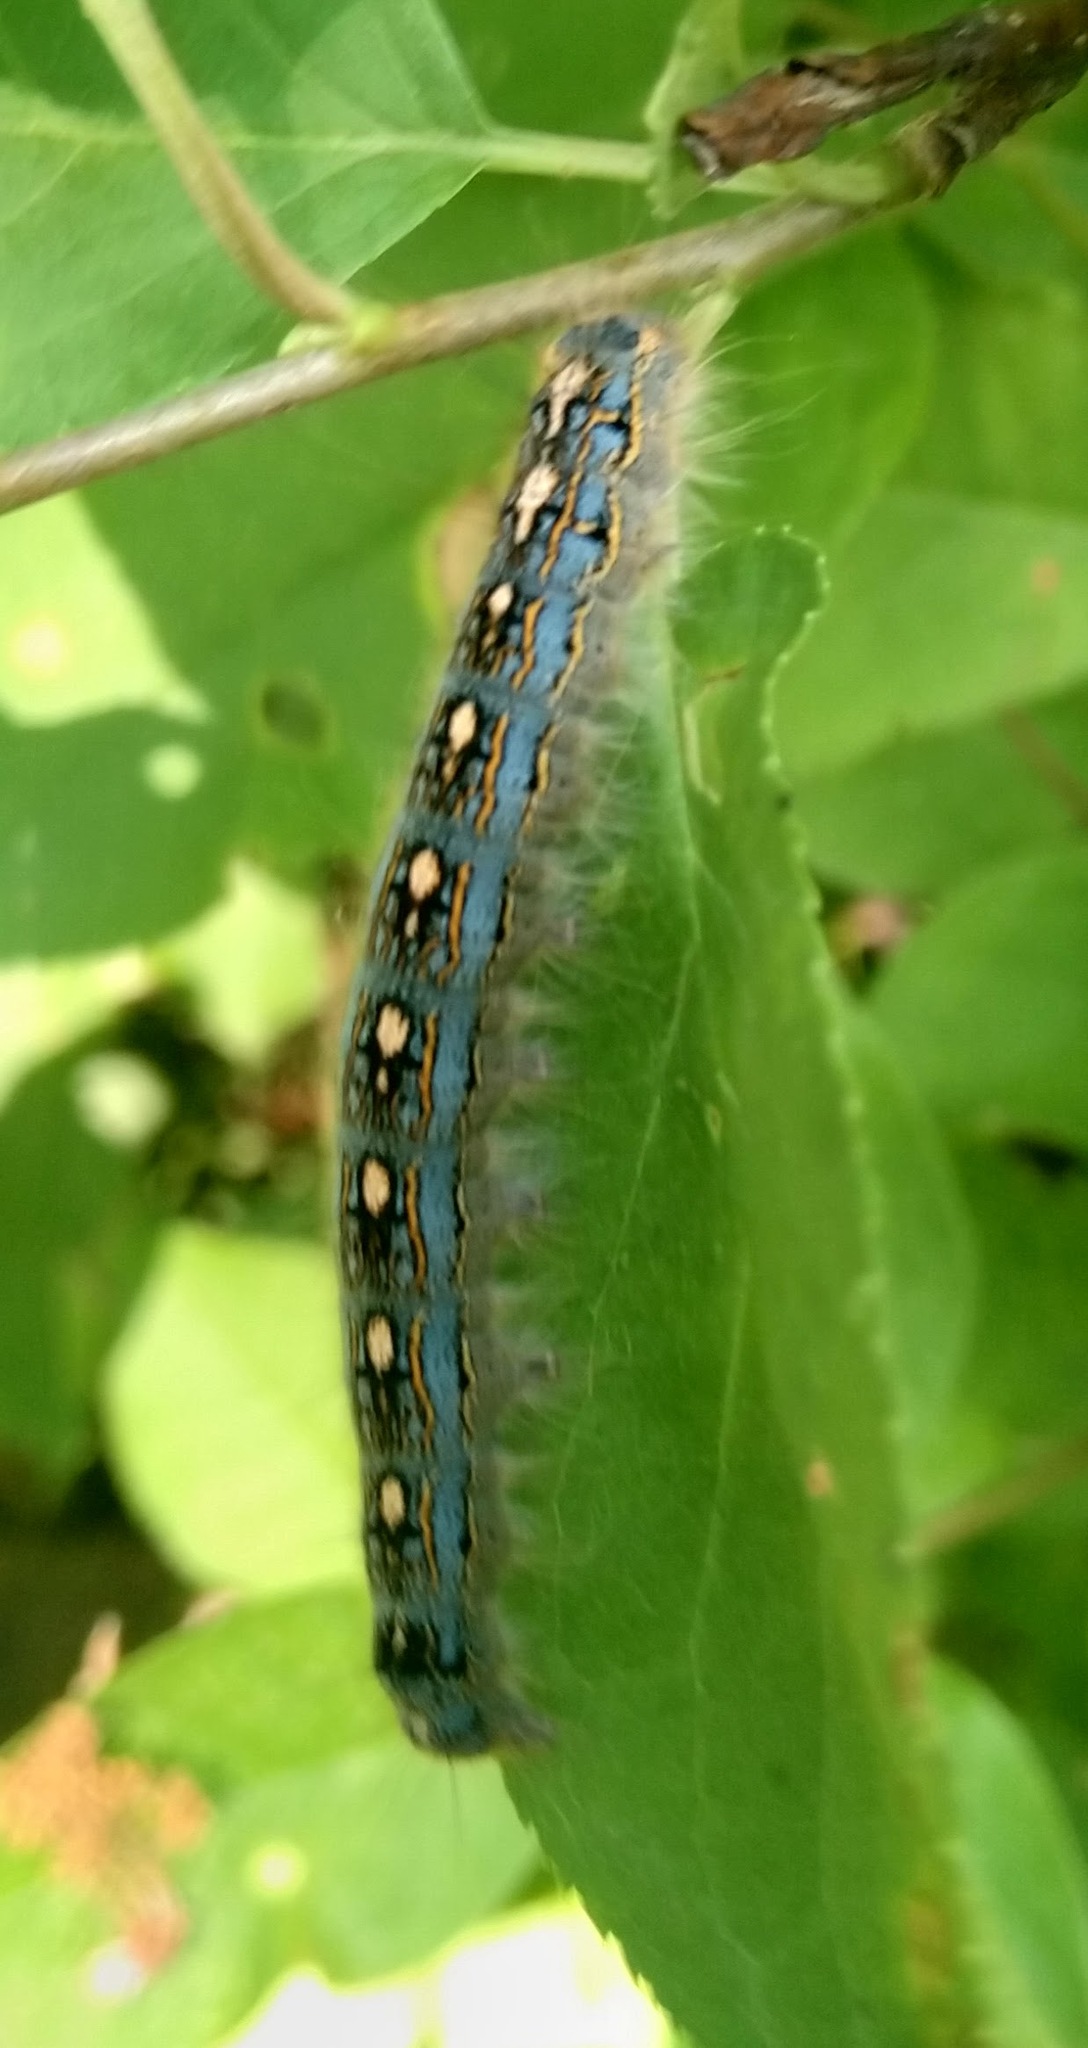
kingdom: Animalia
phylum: Arthropoda
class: Insecta
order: Lepidoptera
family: Lasiocampidae
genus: Malacosoma
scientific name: Malacosoma disstria
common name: Forest tent caterpillar
